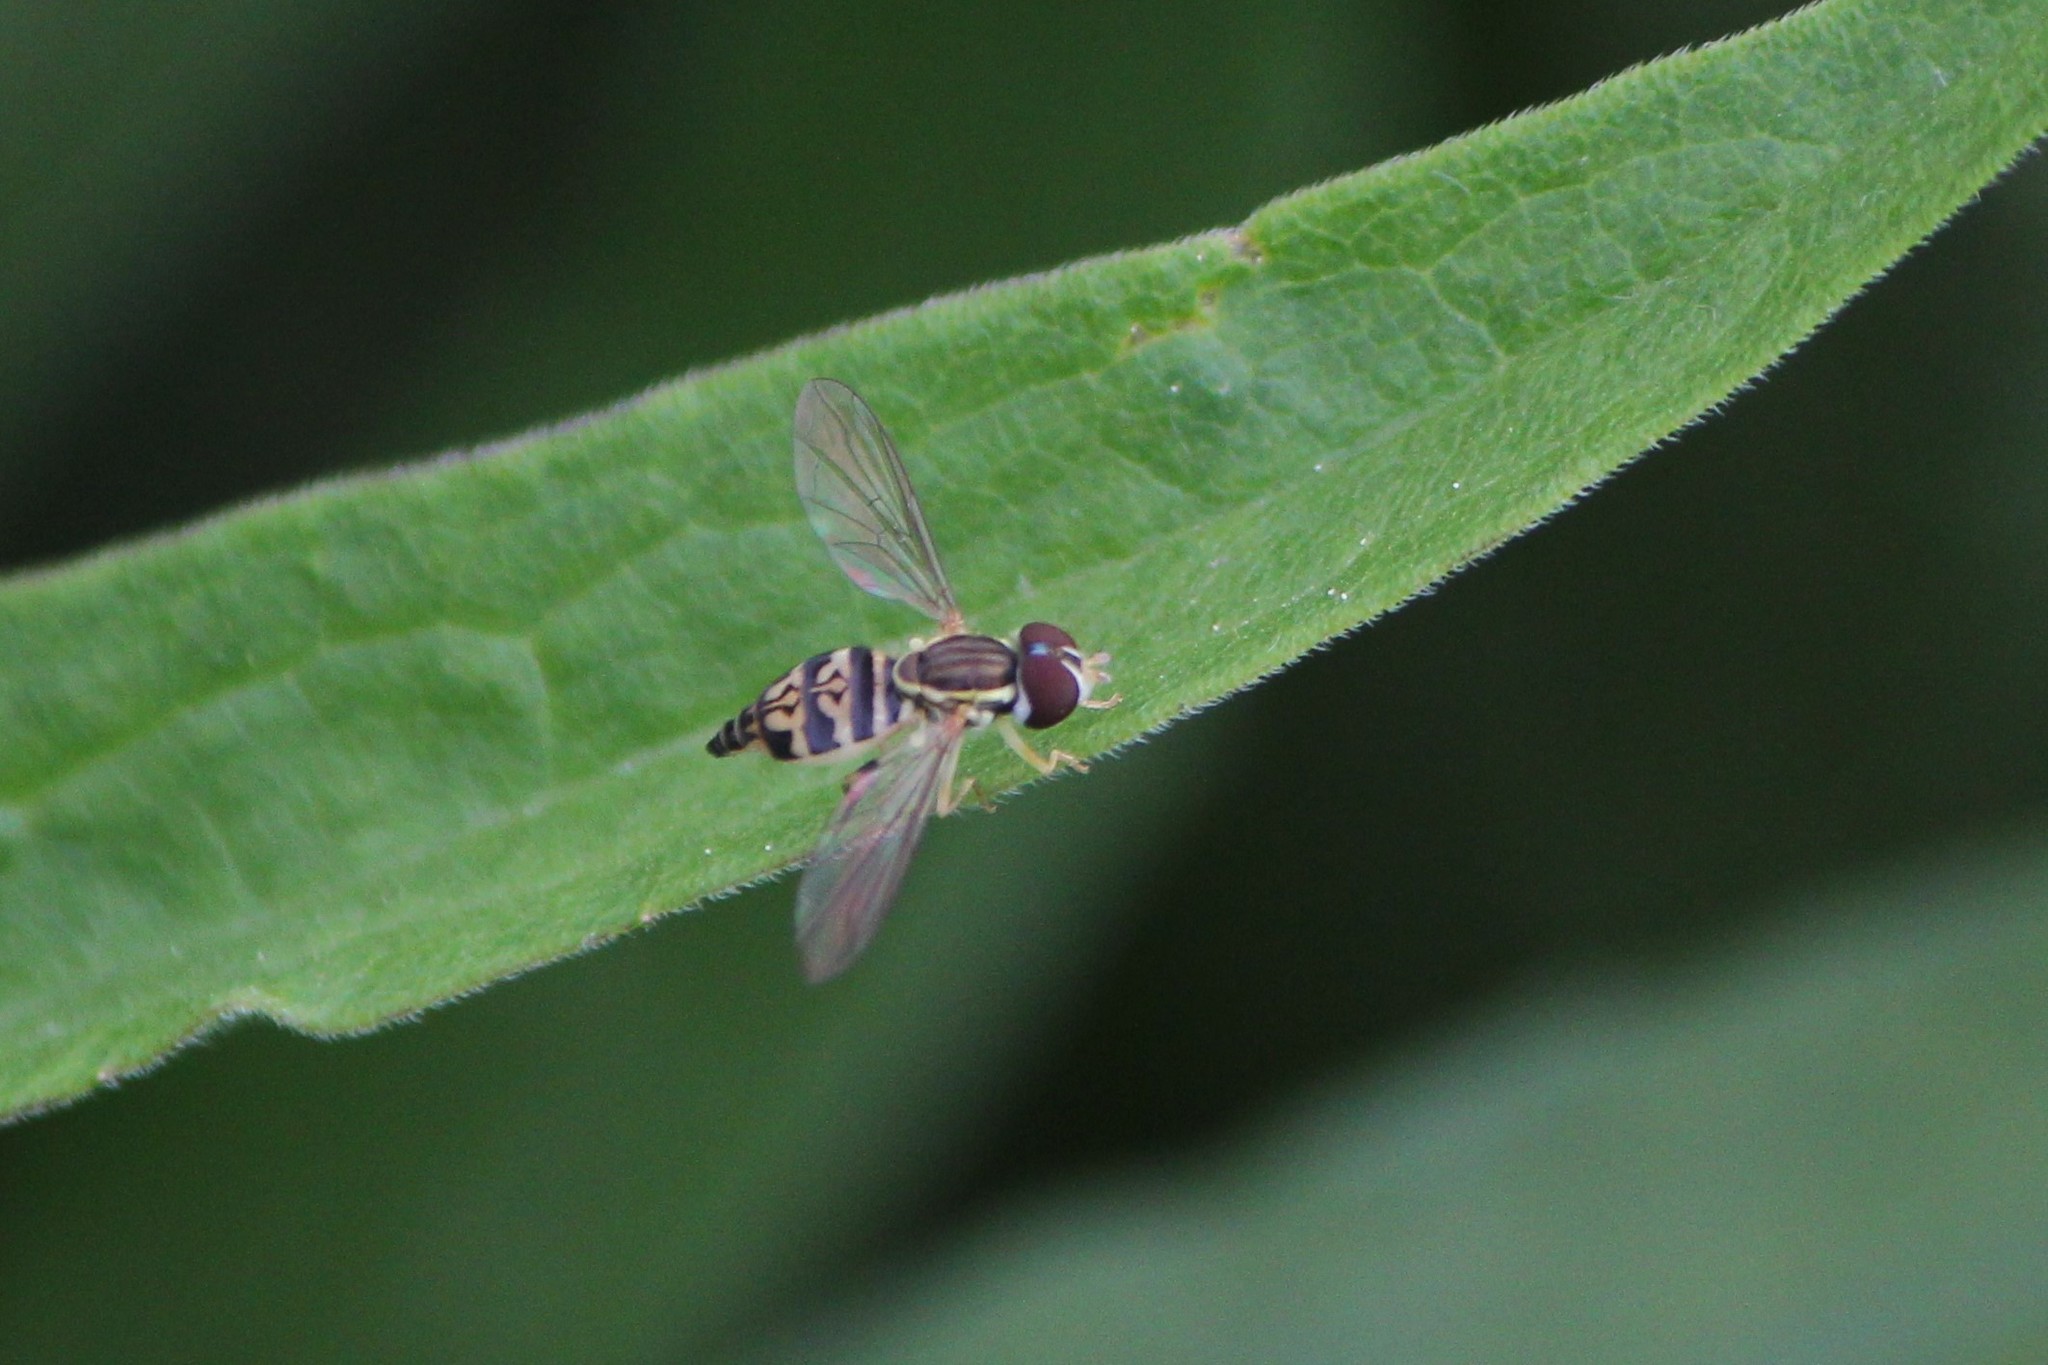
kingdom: Animalia
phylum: Arthropoda
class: Insecta
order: Diptera
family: Syrphidae
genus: Toxomerus
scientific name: Toxomerus geminatus
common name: Eastern calligrapher
